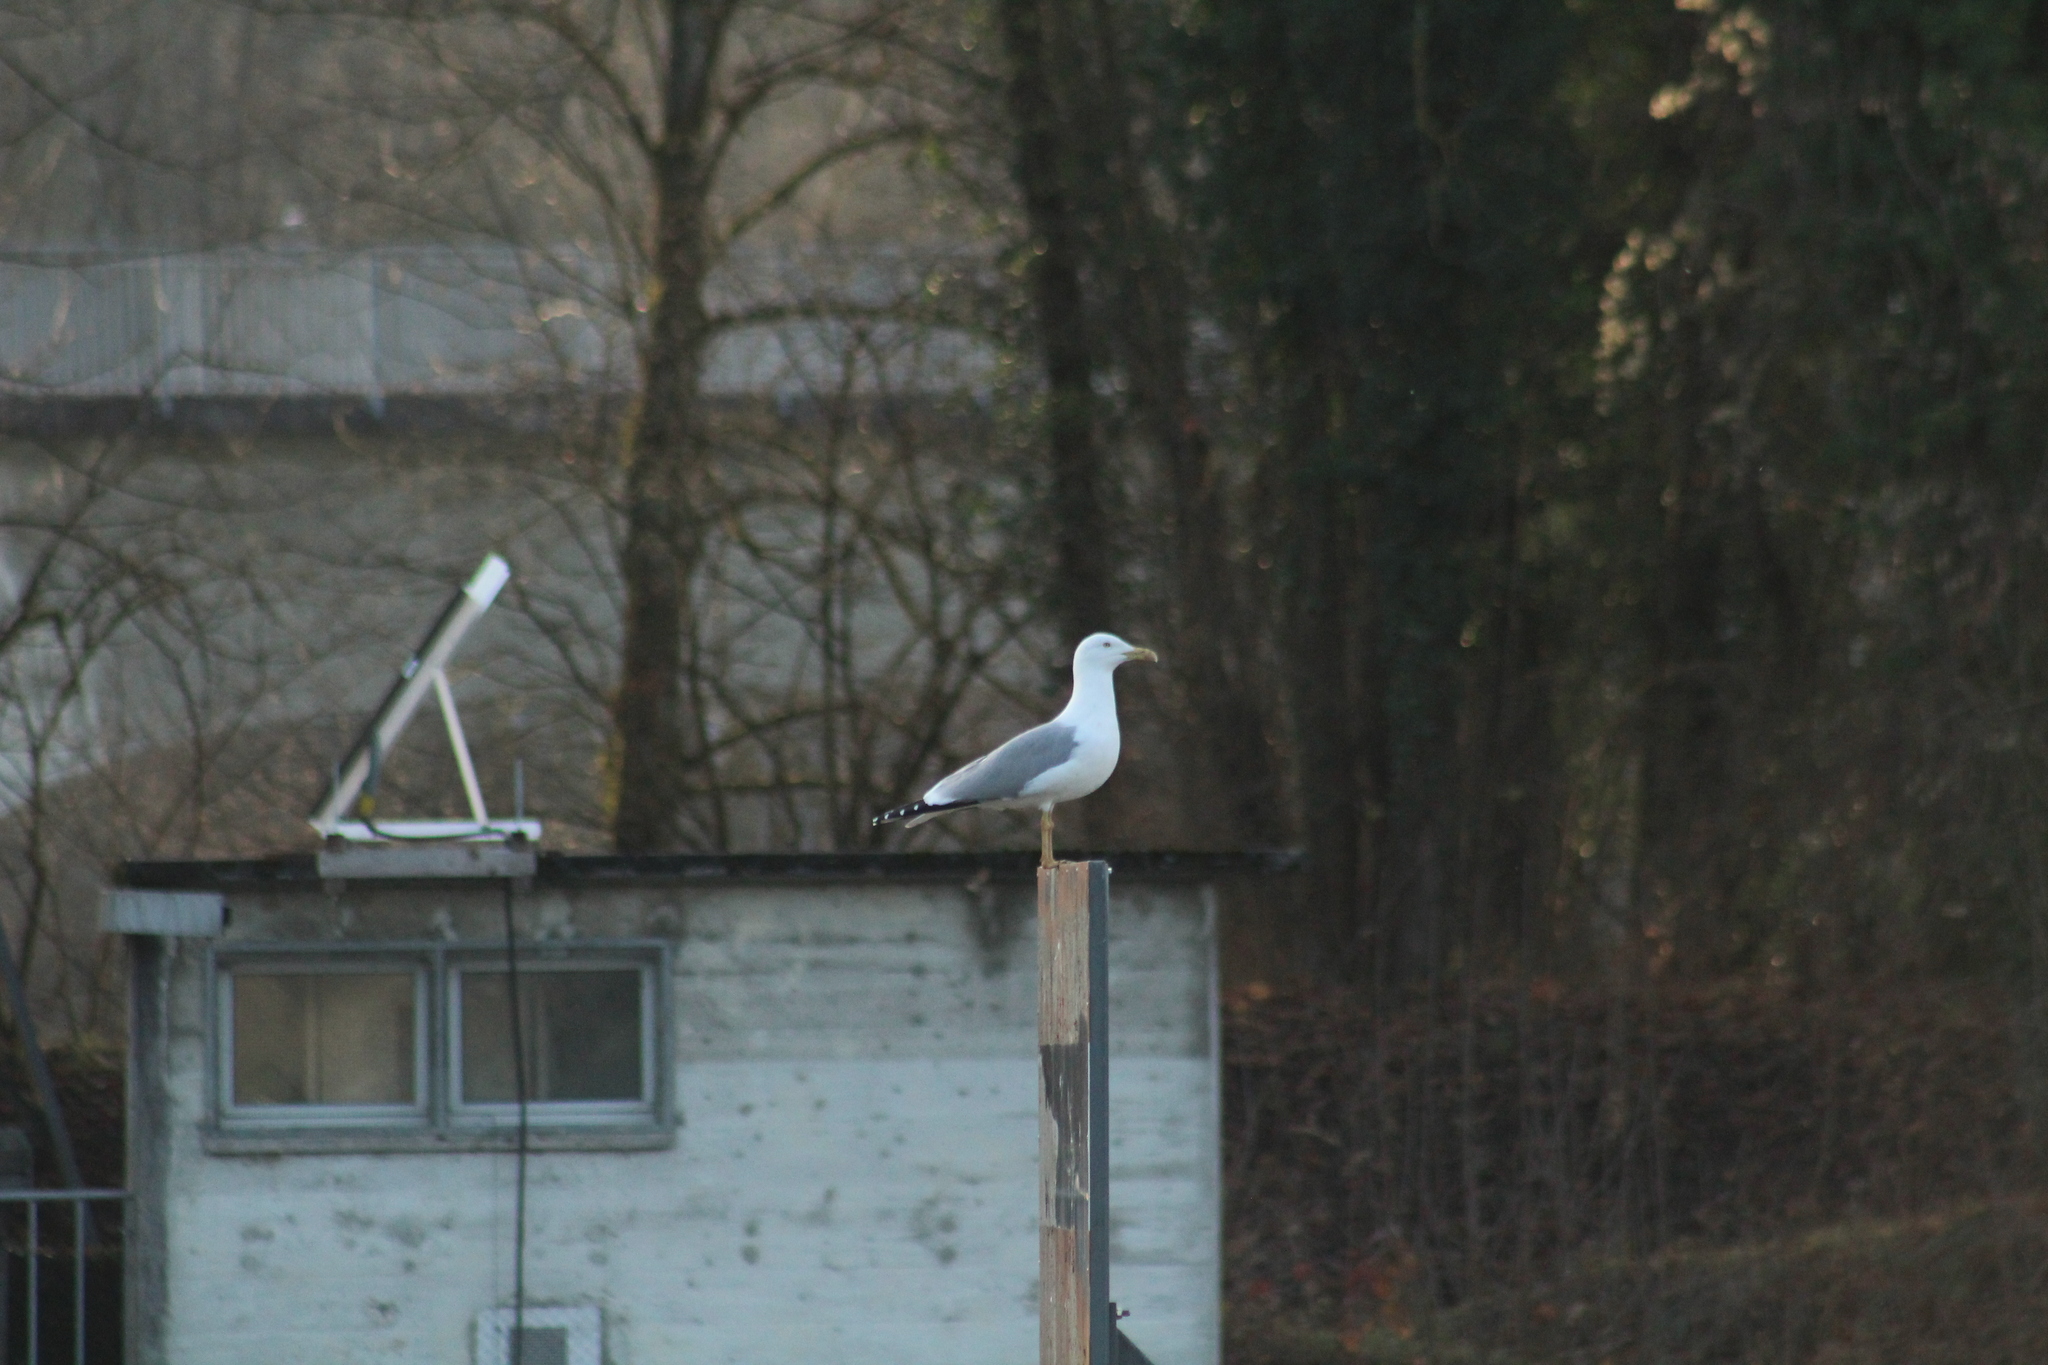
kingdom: Animalia
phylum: Chordata
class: Aves
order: Charadriiformes
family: Laridae
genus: Larus
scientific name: Larus michahellis
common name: Yellow-legged gull
